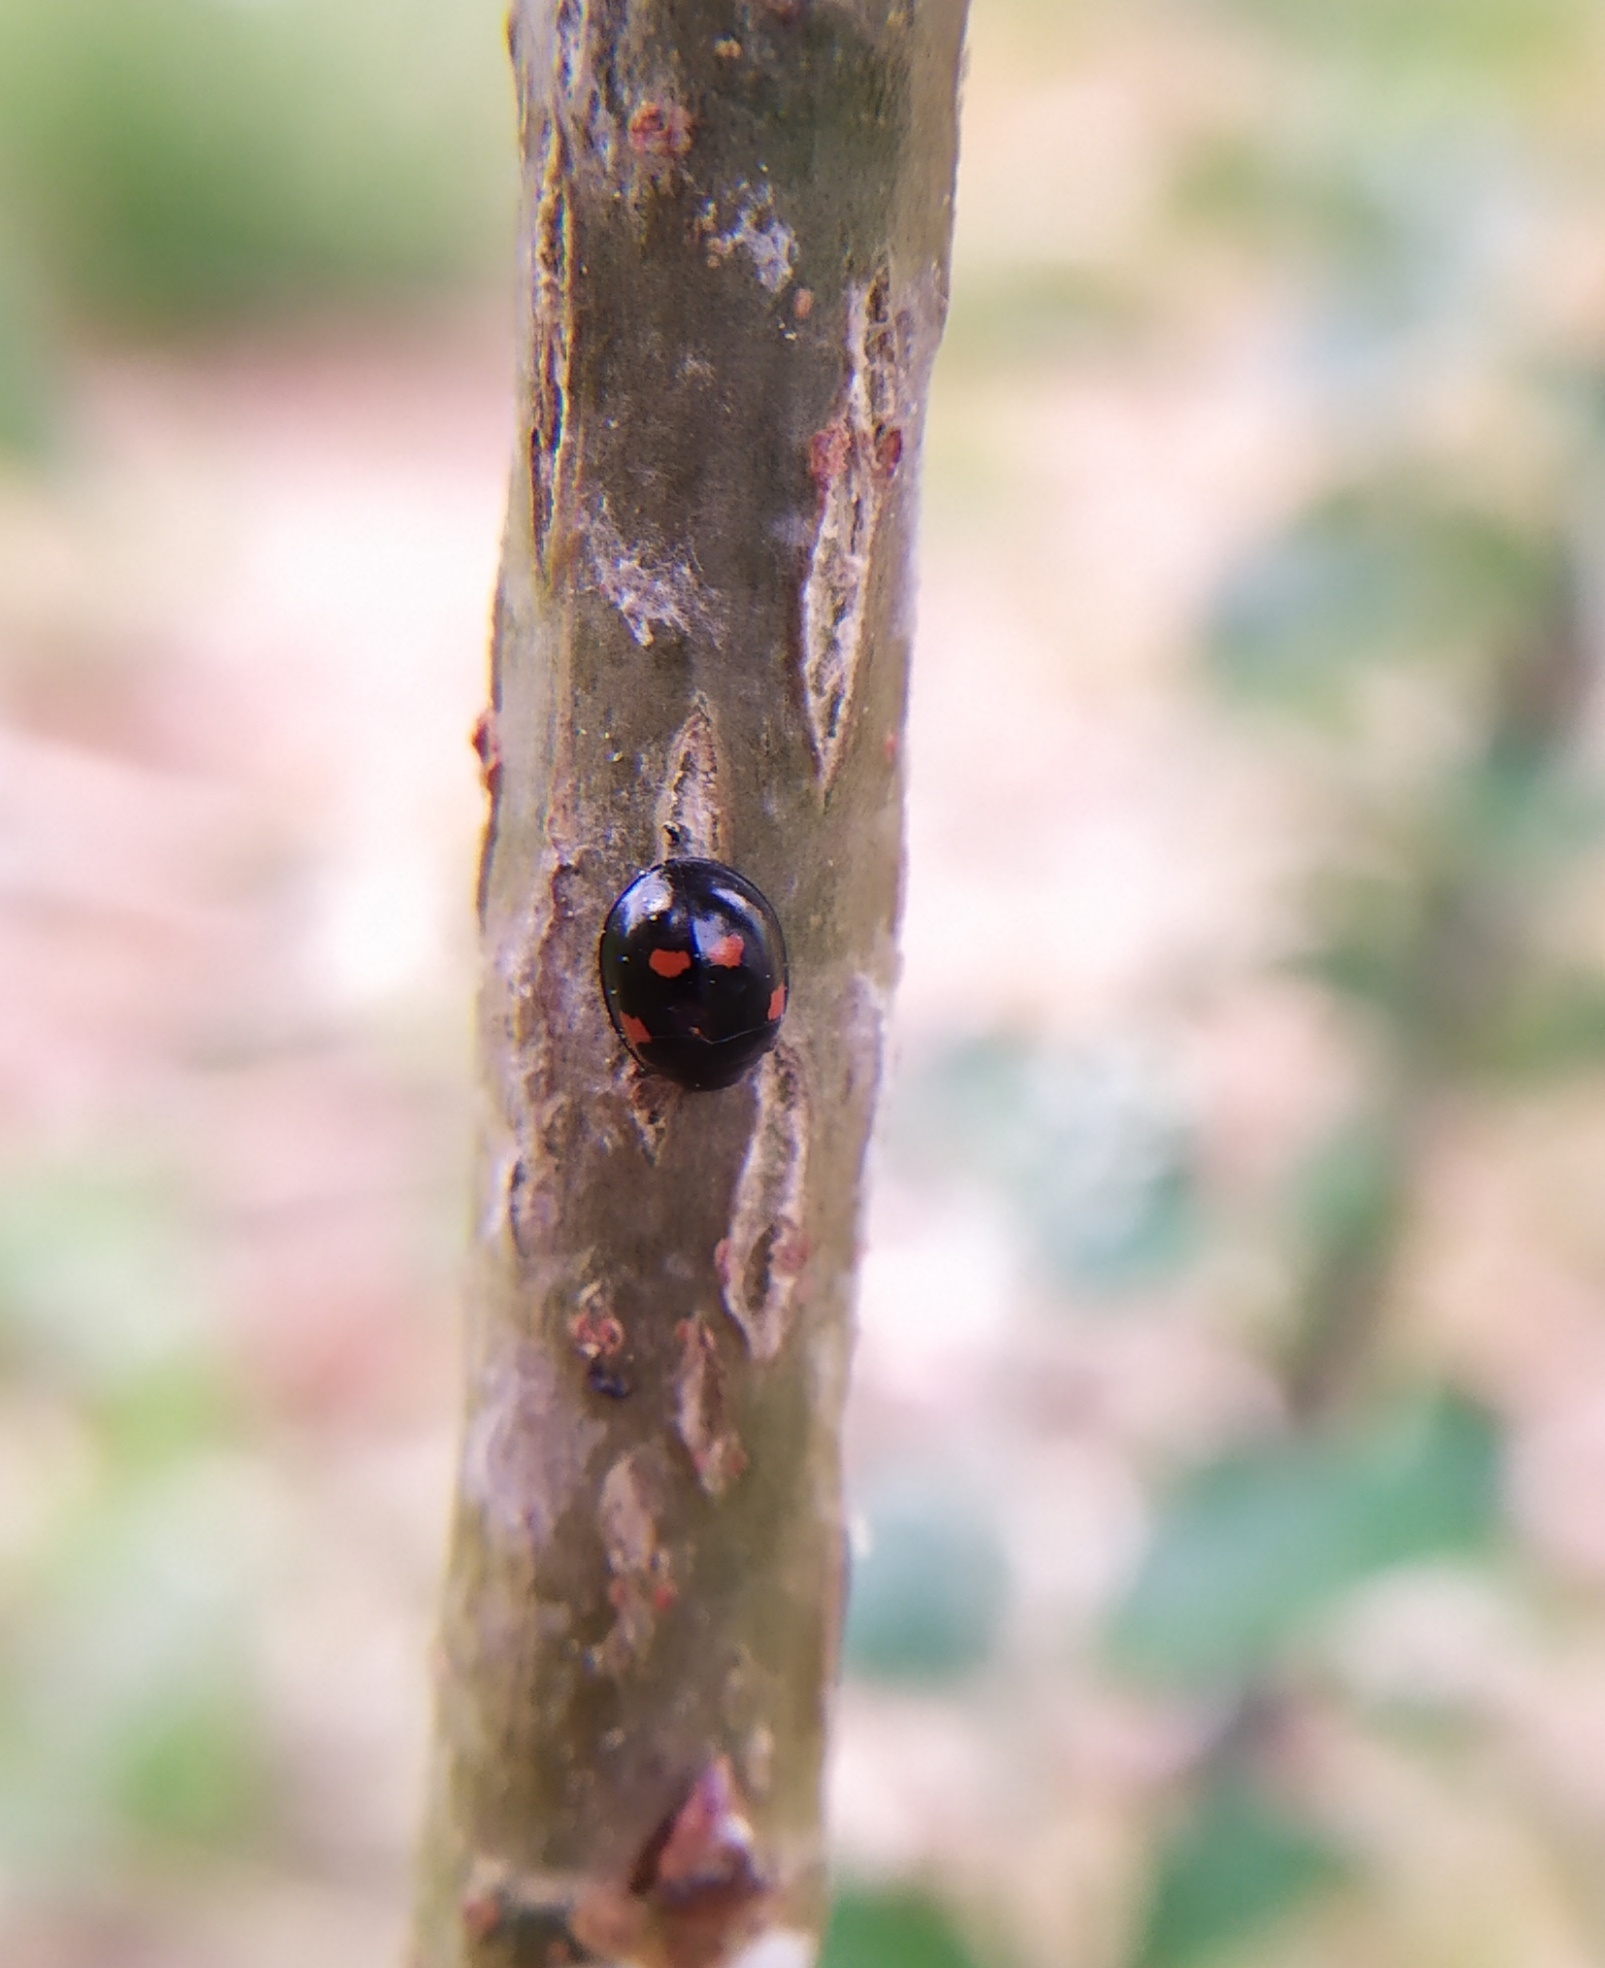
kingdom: Animalia
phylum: Arthropoda
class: Insecta
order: Coleoptera
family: Coccinellidae
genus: Brumus
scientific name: Brumus quadripustulatus
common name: Ladybird beetle
